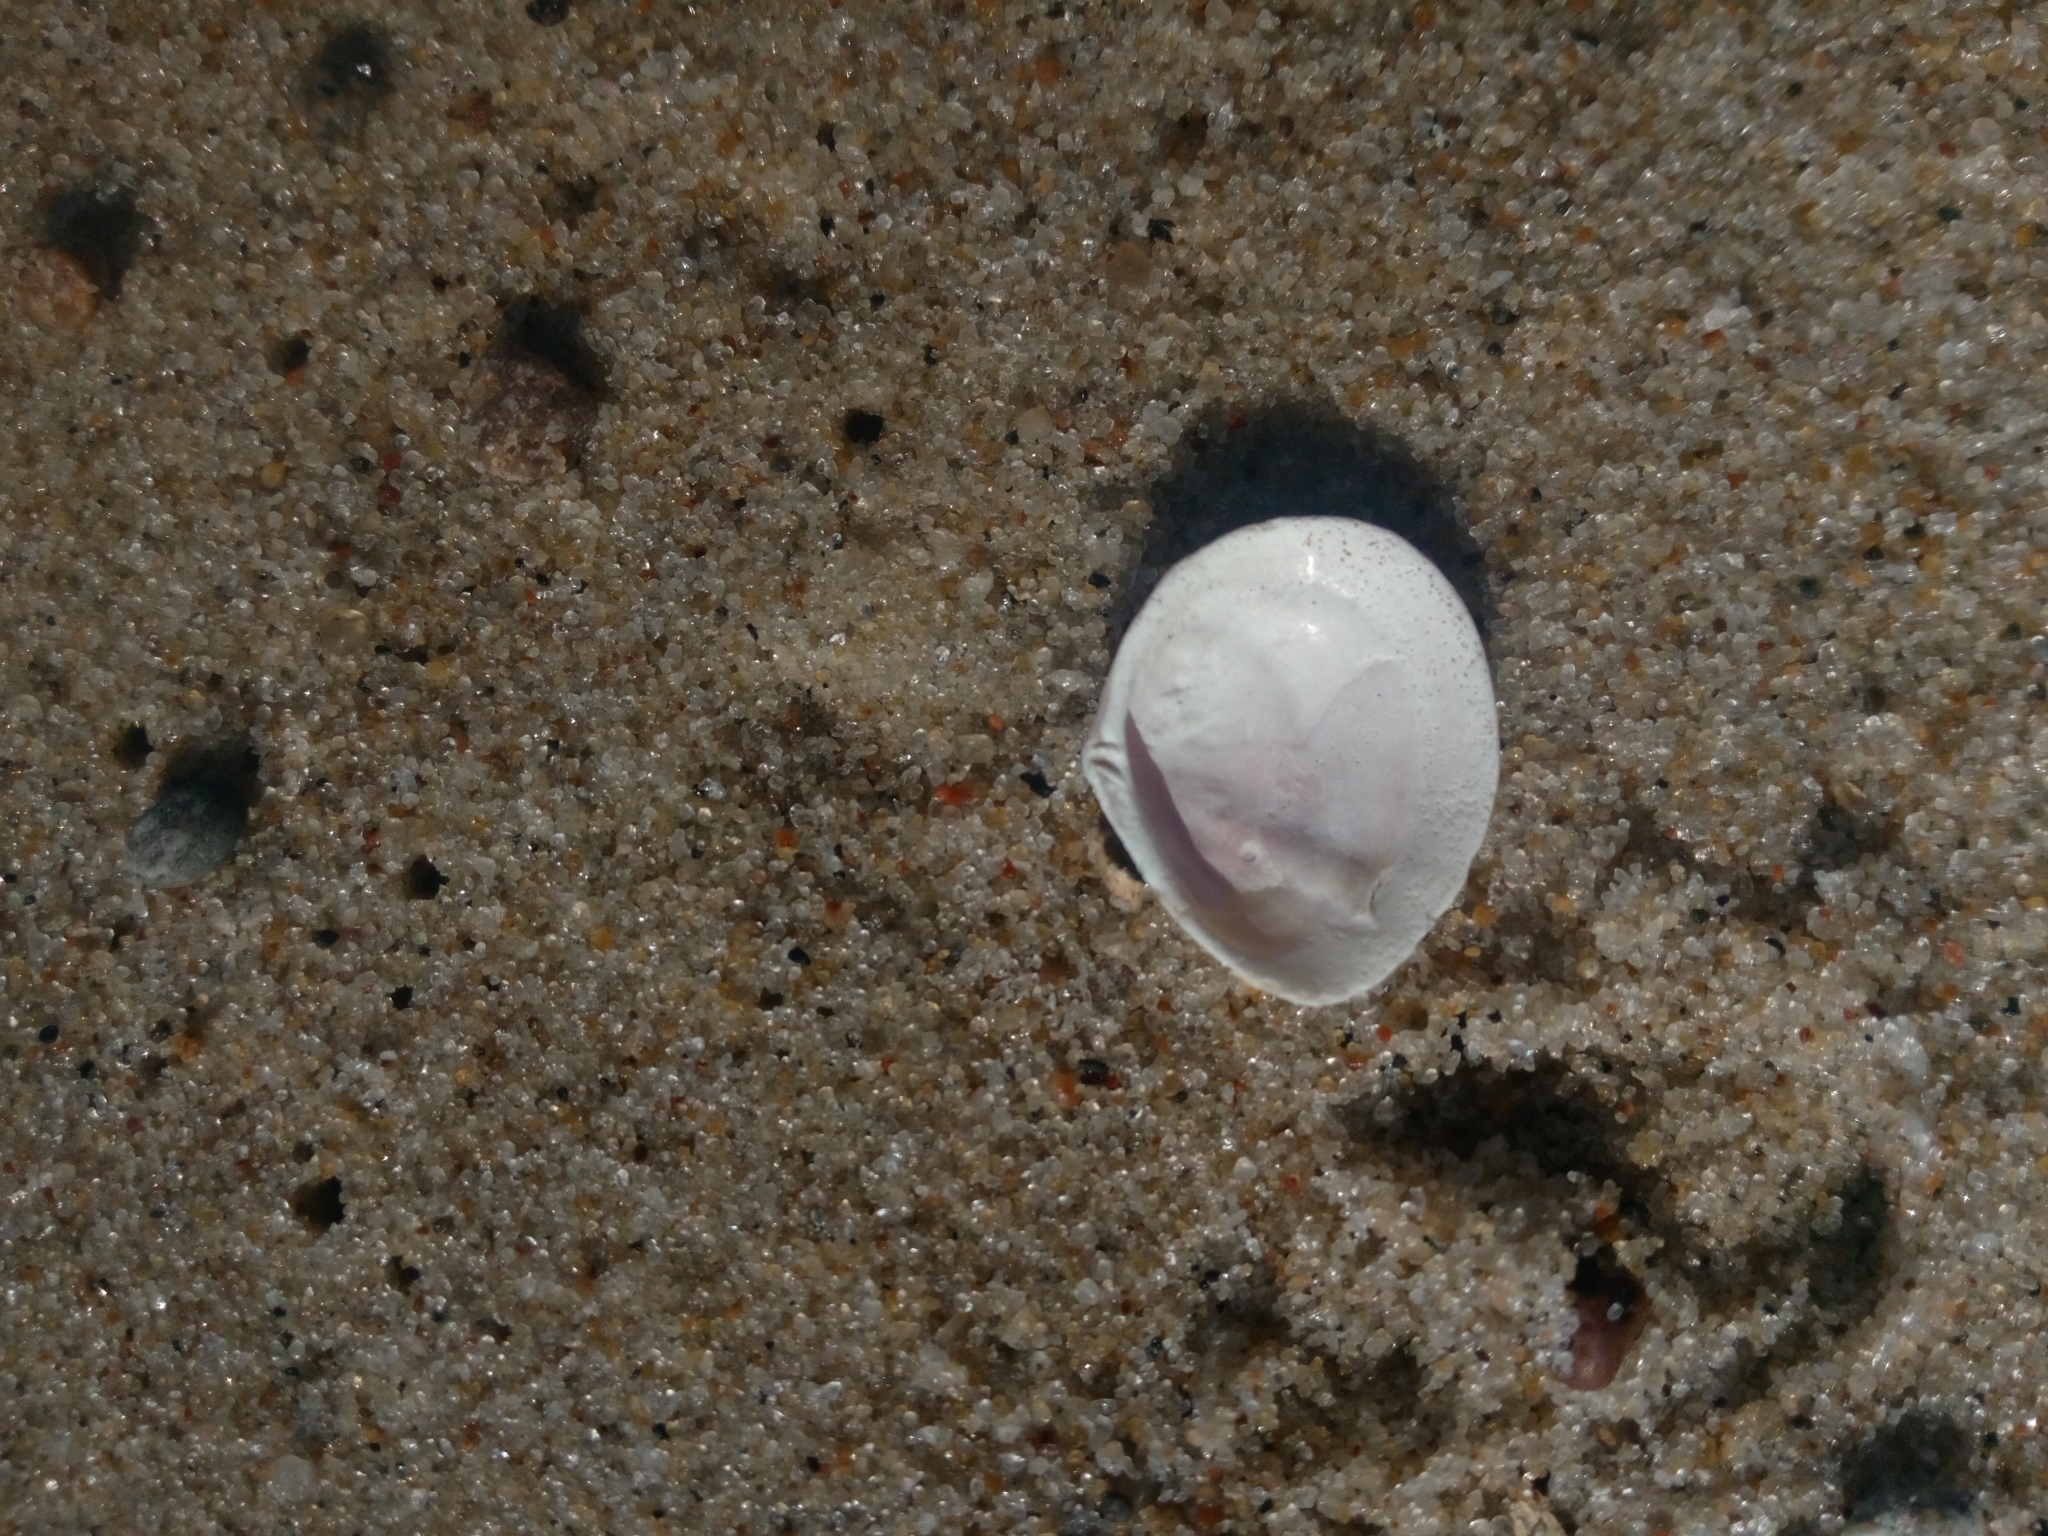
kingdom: Animalia
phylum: Mollusca
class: Bivalvia
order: Cardiida
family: Tellinidae
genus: Macoma
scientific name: Macoma balthica
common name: Baltic tellin
